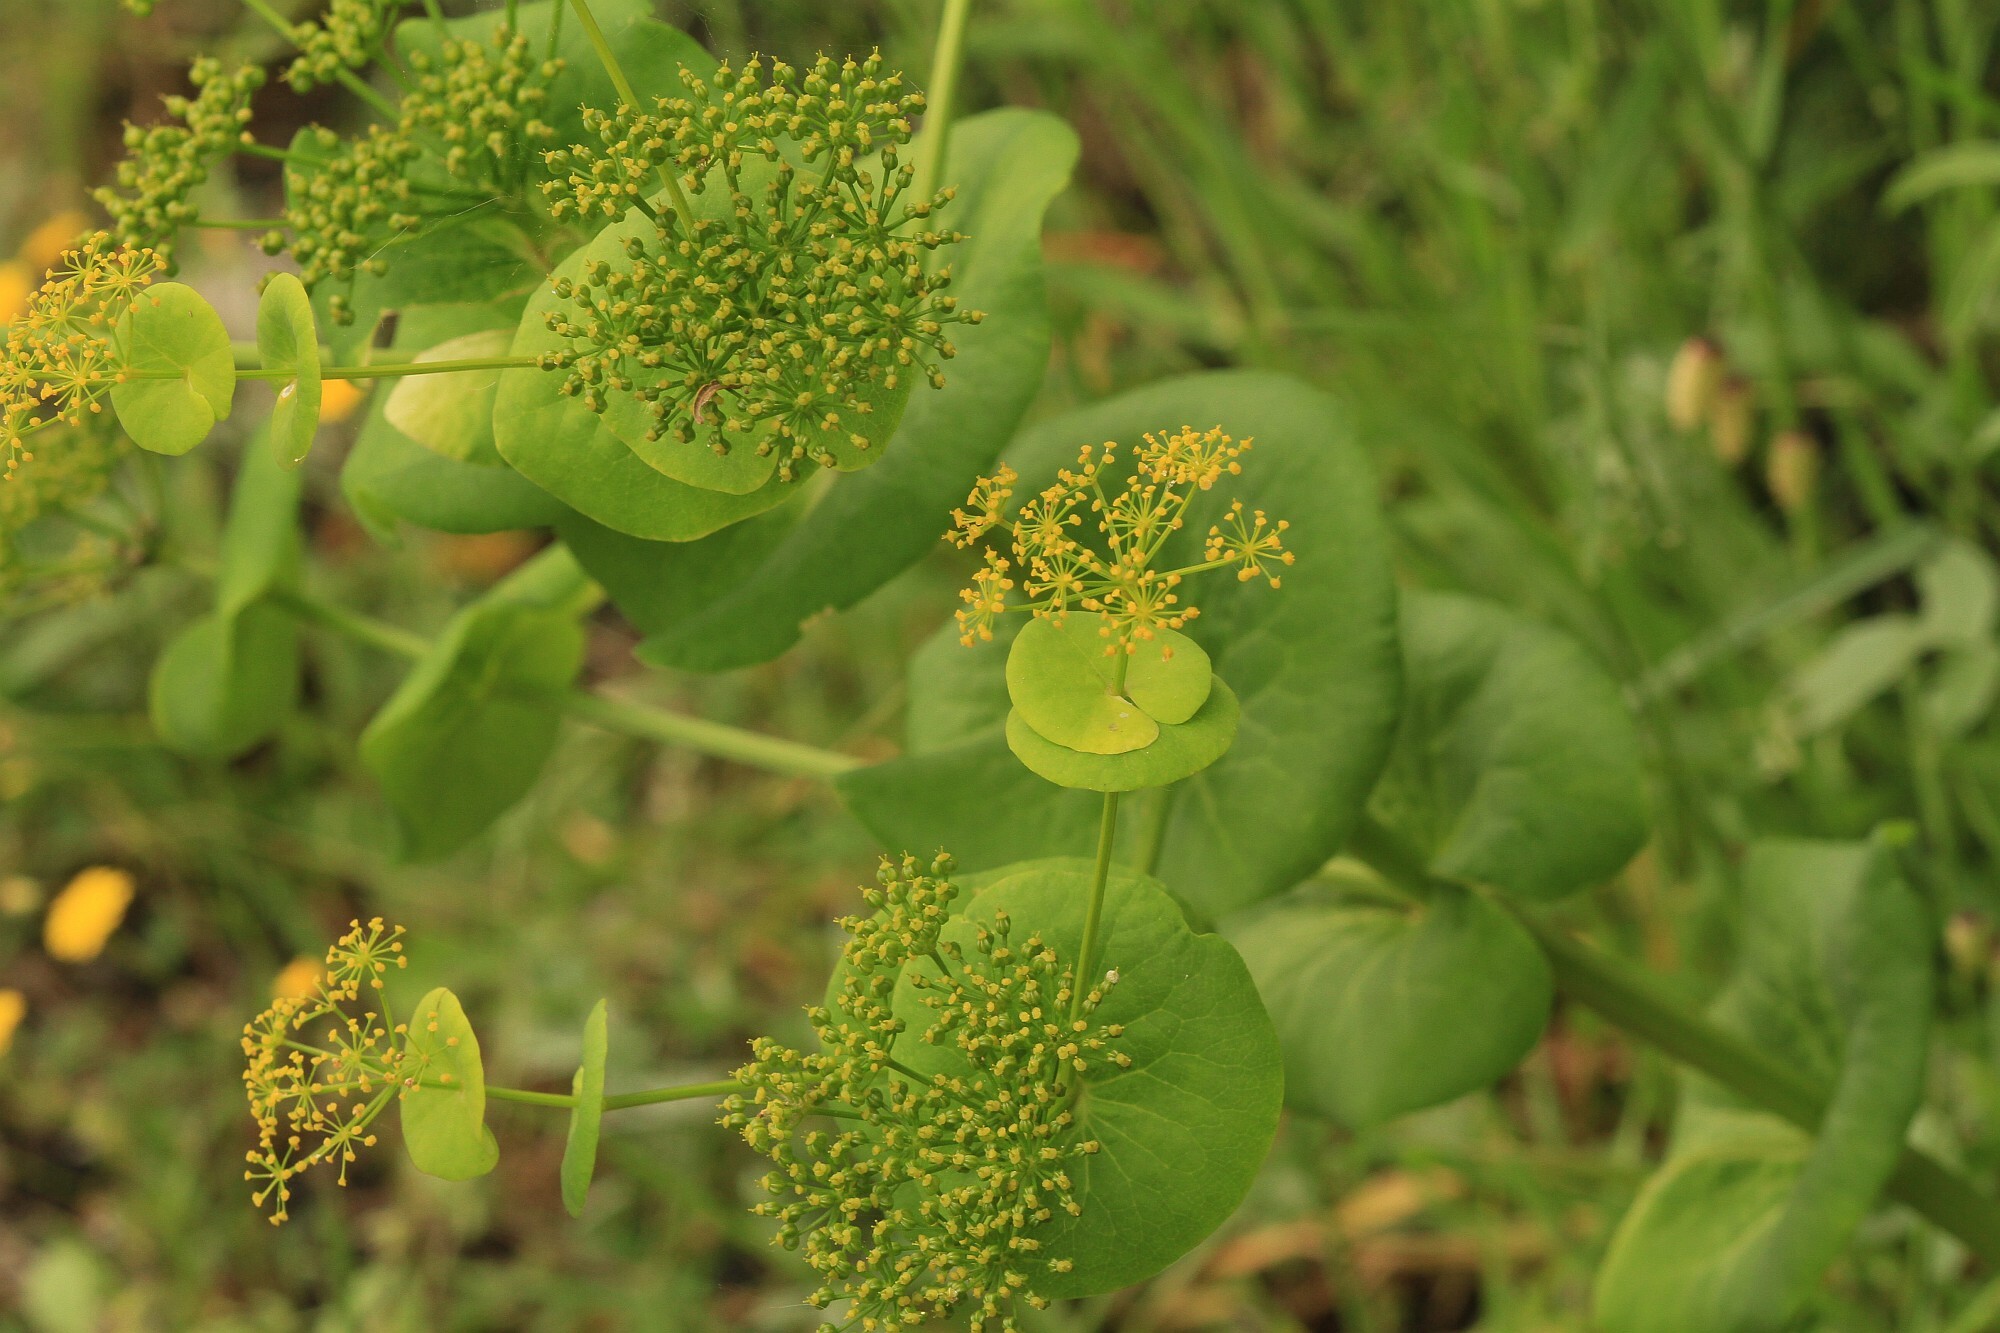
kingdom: Plantae
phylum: Tracheophyta
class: Magnoliopsida
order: Apiales
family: Apiaceae
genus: Smyrnium
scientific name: Smyrnium perfoliatum
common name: Perfoliate alexanders
